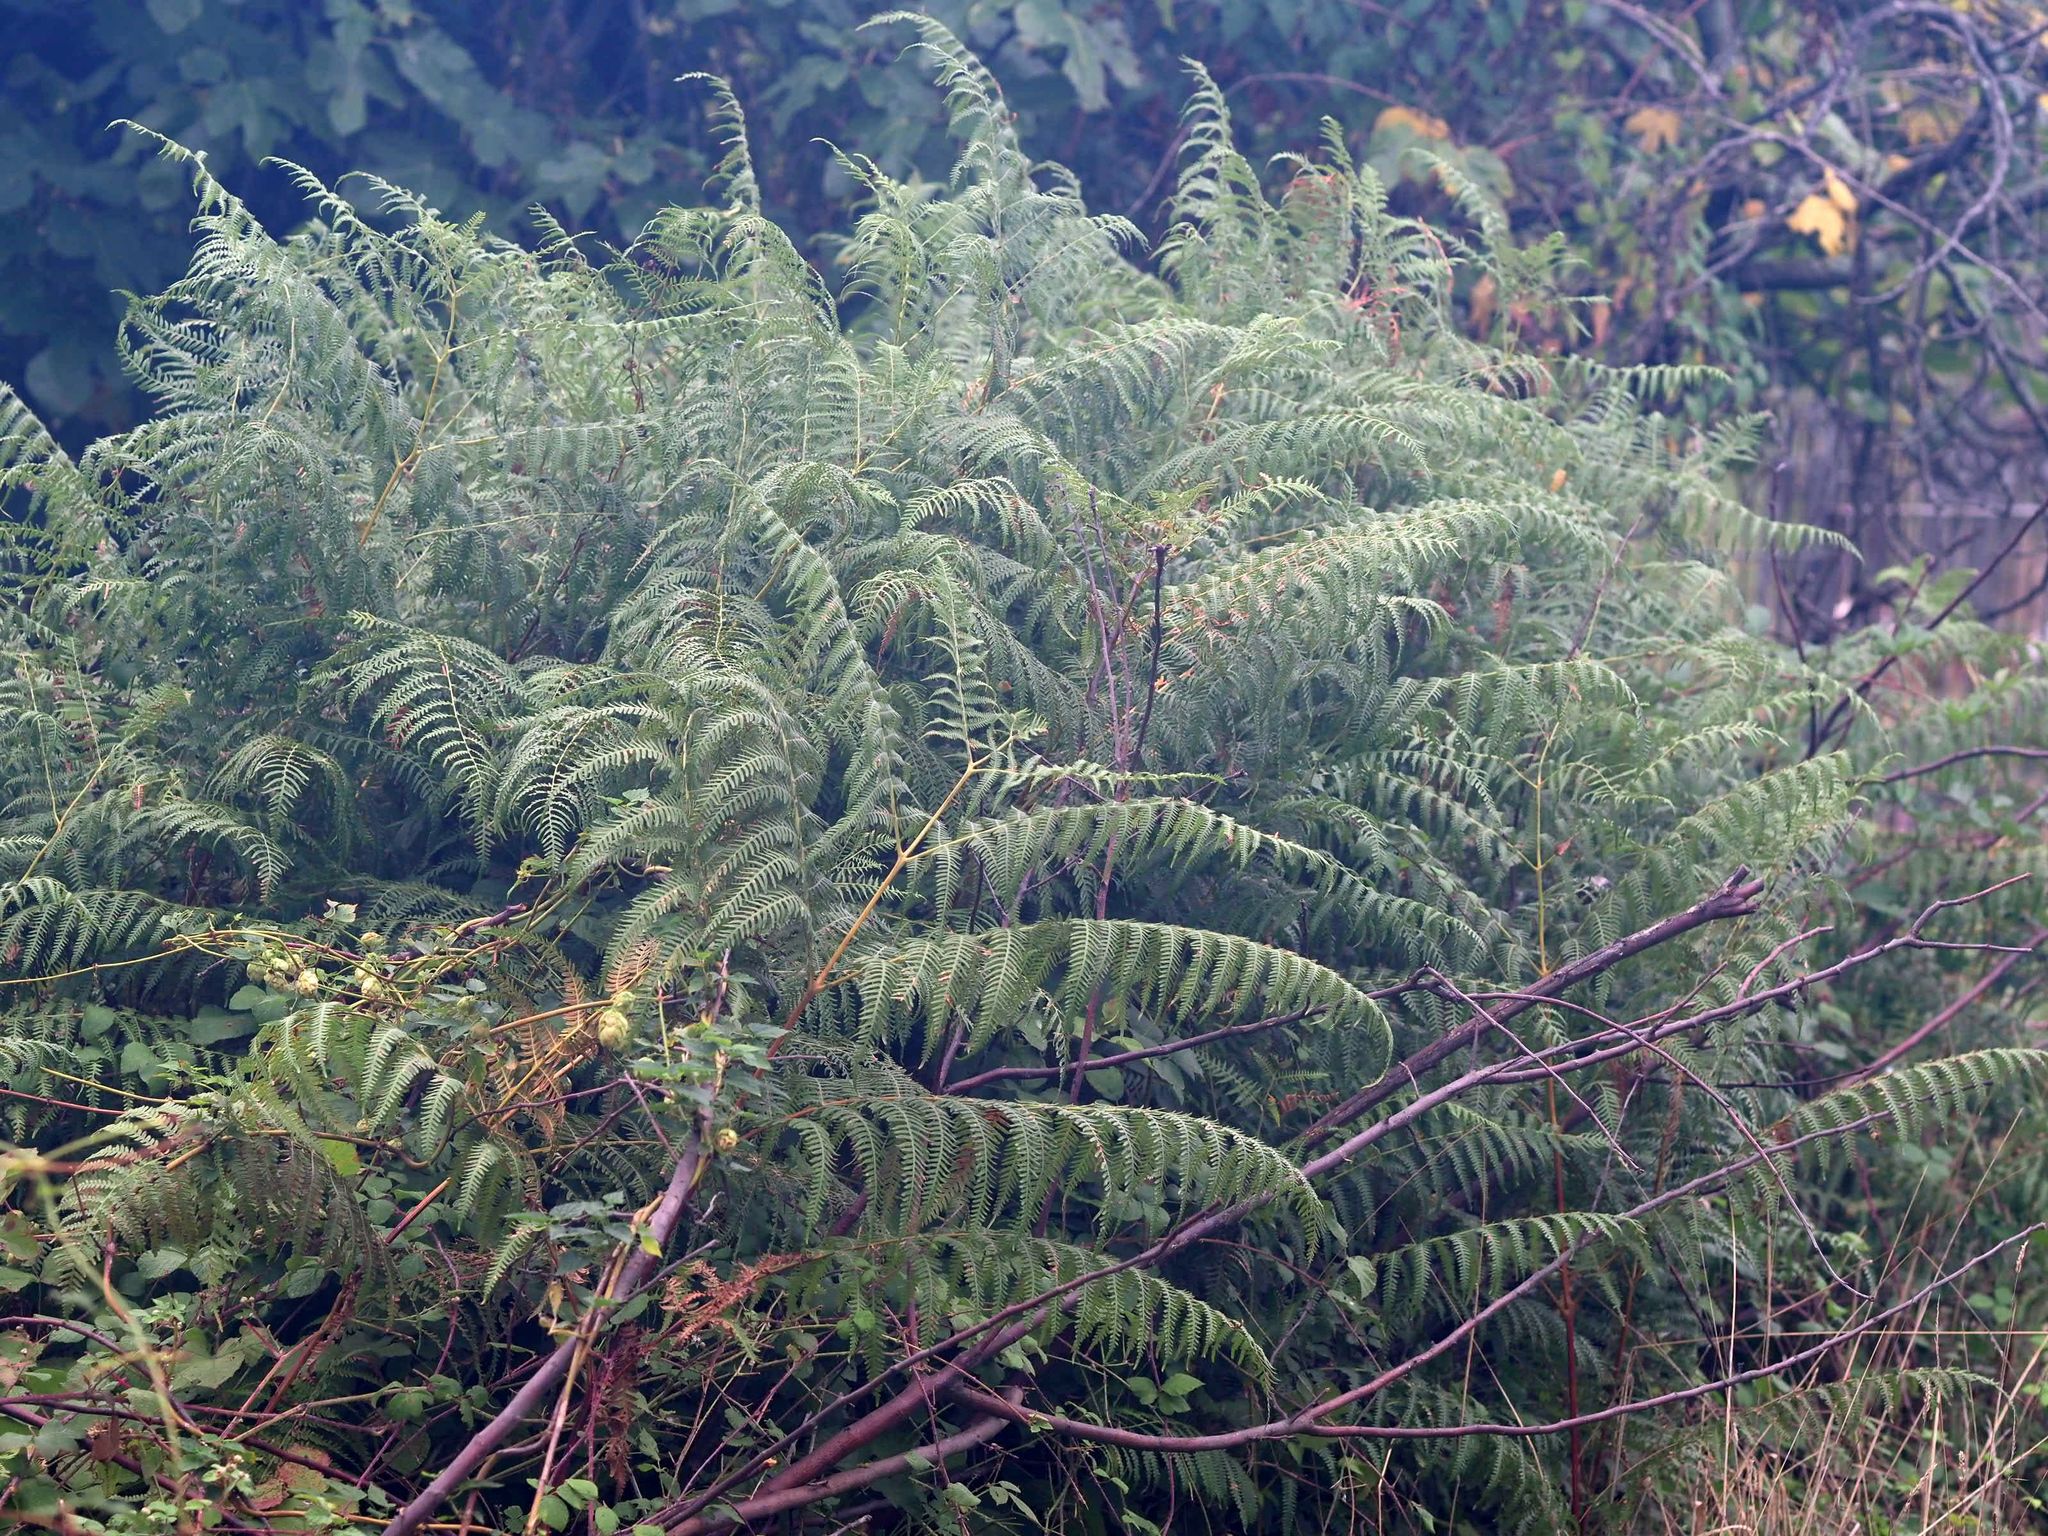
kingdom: Plantae
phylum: Tracheophyta
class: Polypodiopsida
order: Polypodiales
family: Dennstaedtiaceae
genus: Pteridium
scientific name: Pteridium aquilinum
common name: Bracken
